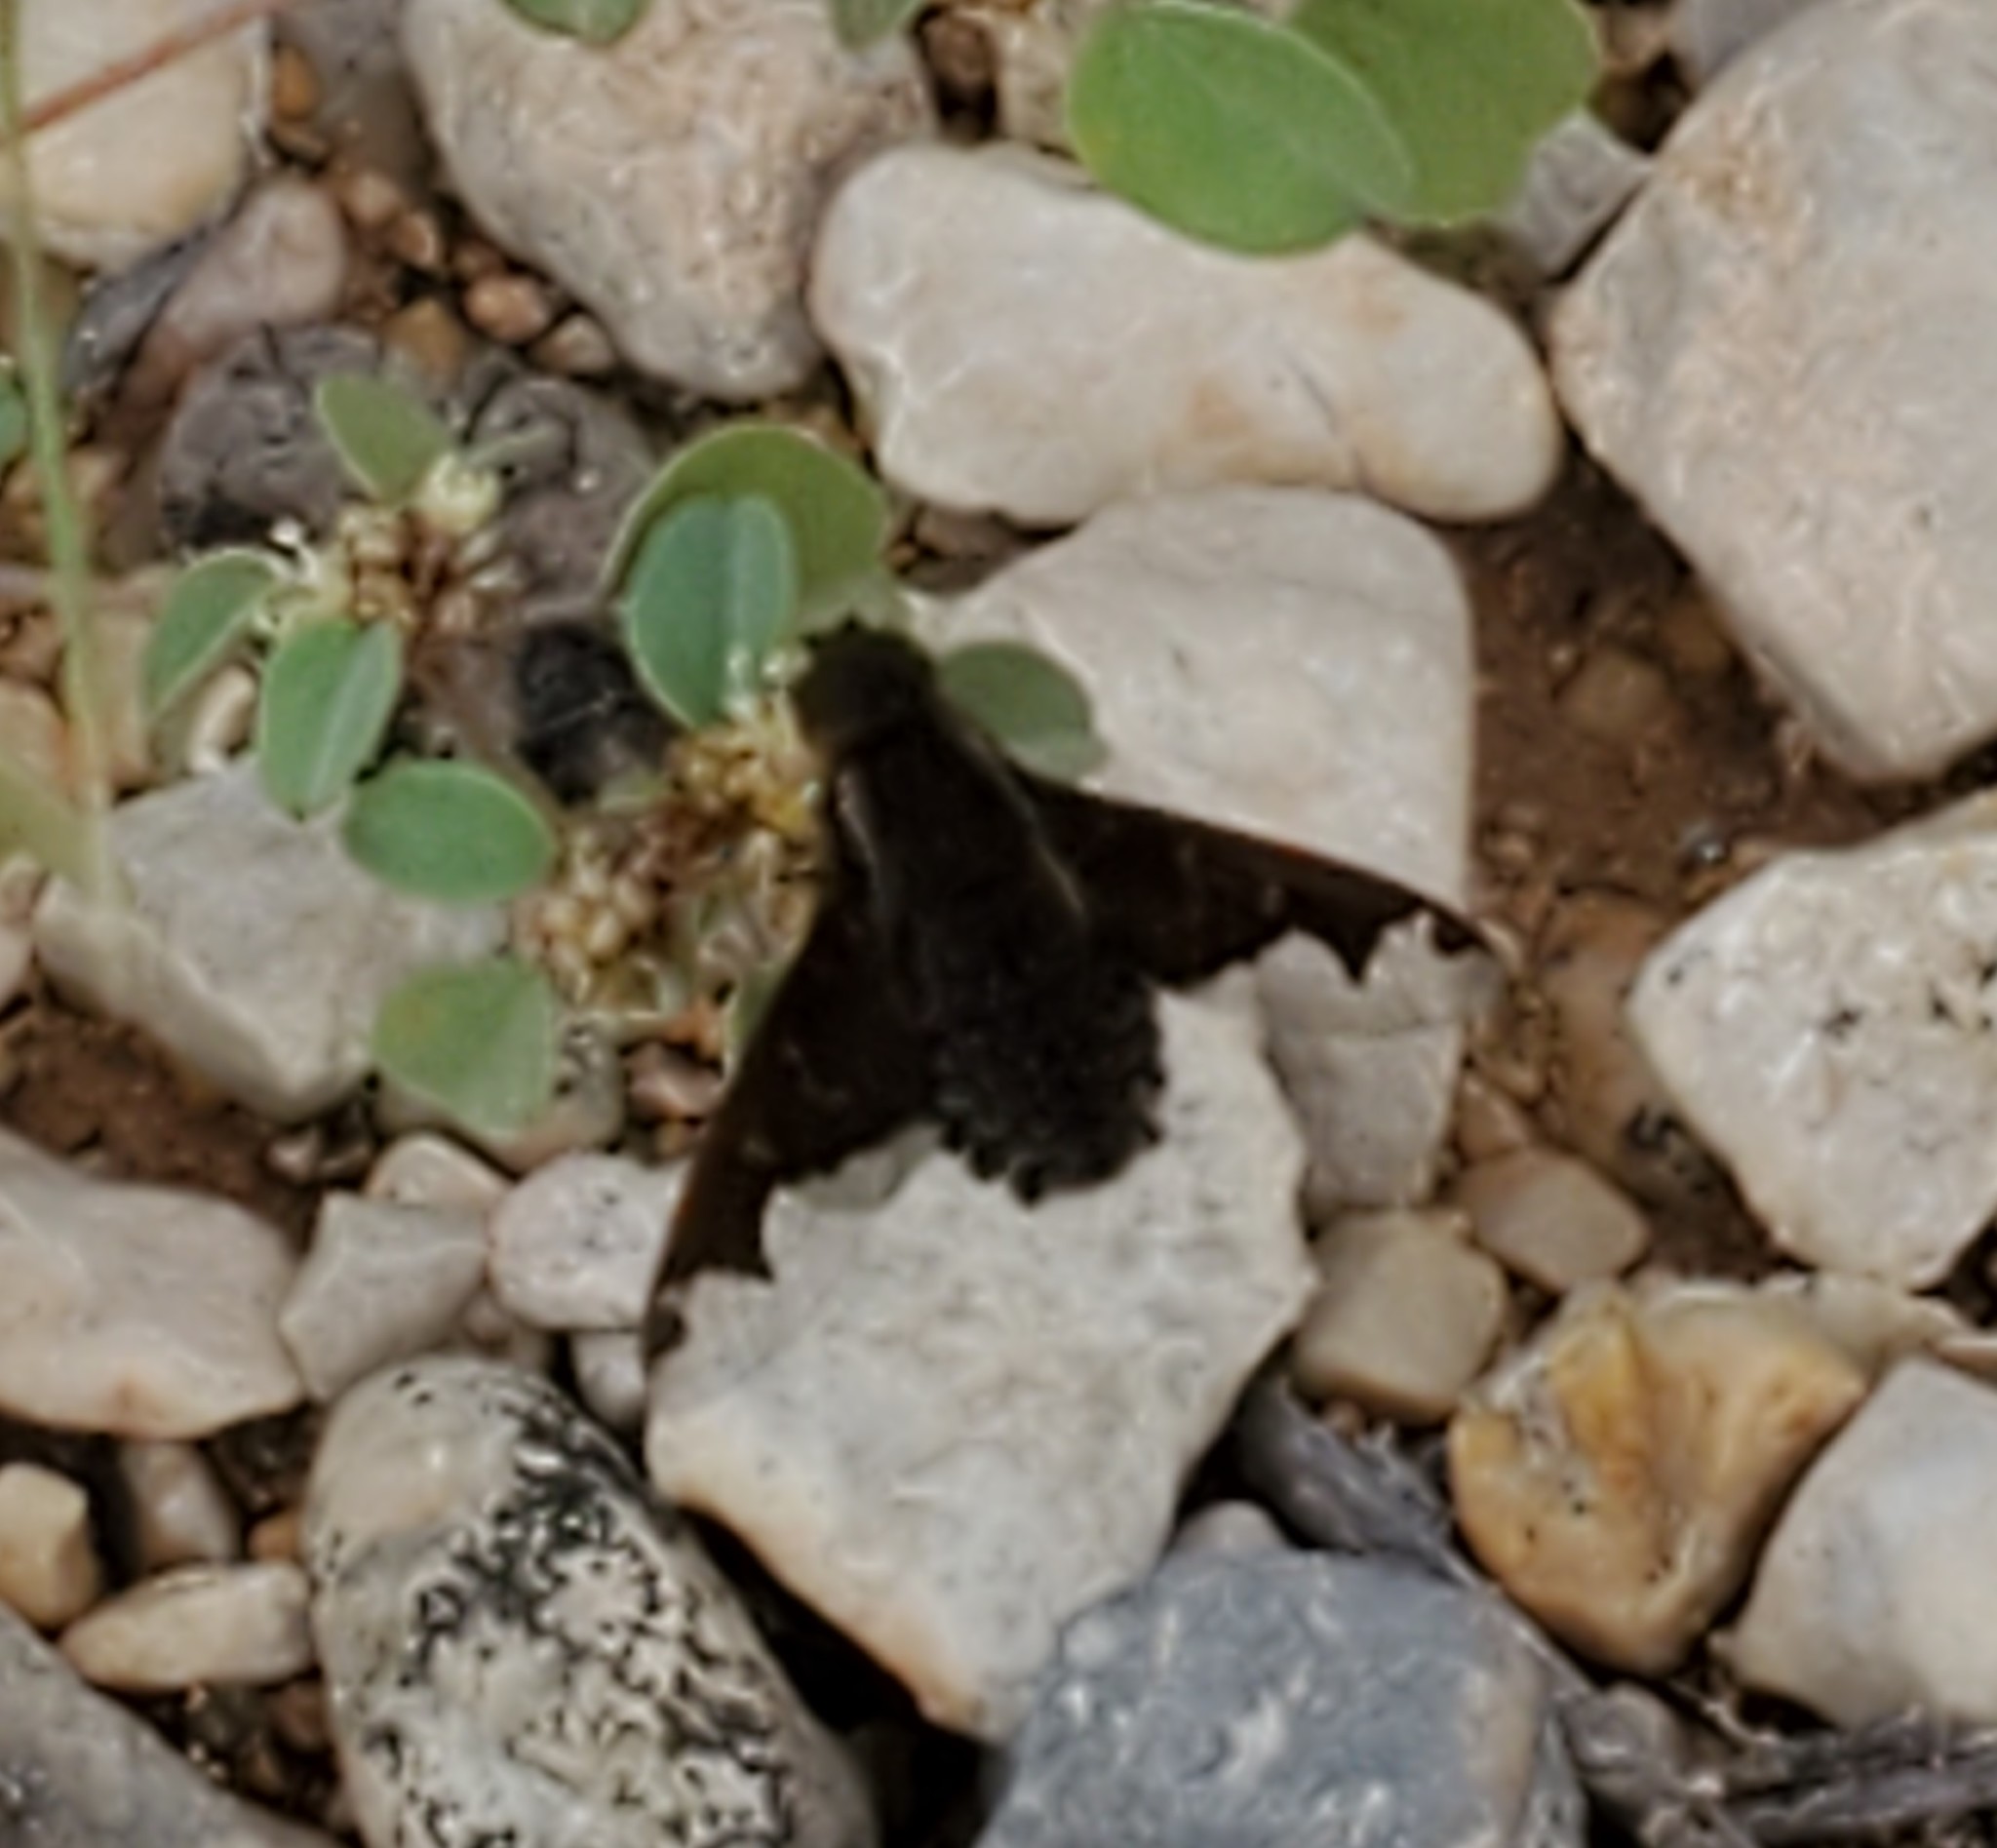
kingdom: Animalia
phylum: Arthropoda
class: Insecta
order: Diptera
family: Bombyliidae
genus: Hemipenthes
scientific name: Hemipenthes sinuosus
